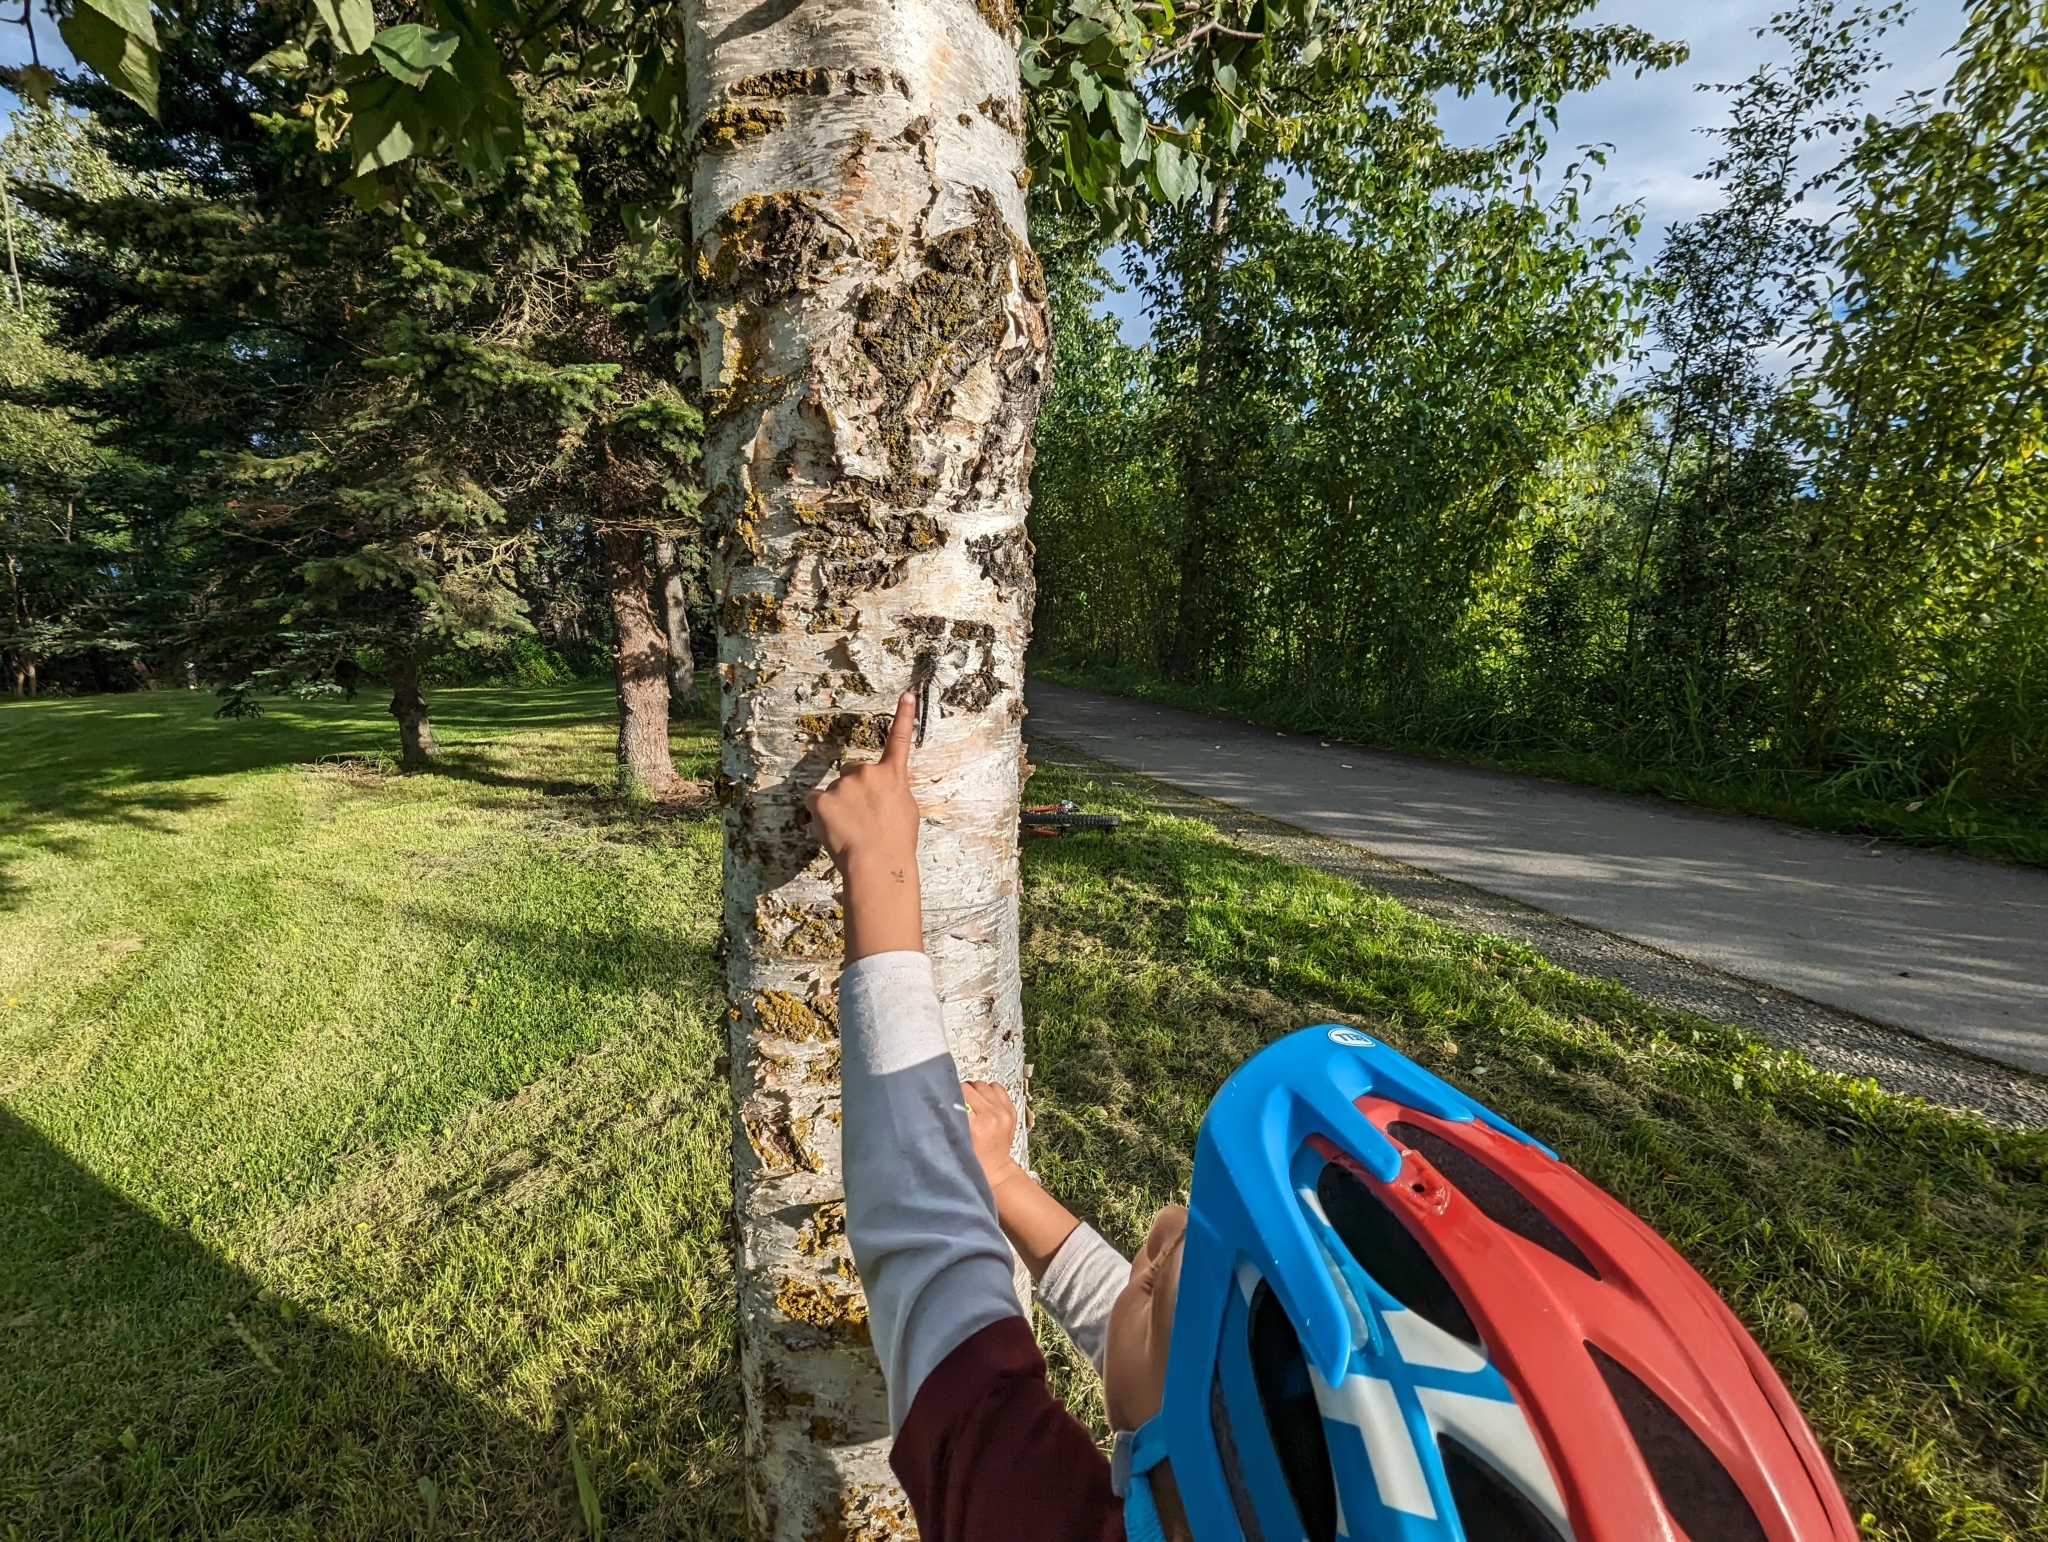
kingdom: Animalia
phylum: Arthropoda
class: Insecta
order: Odonata
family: Aeshnidae
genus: Aeshna
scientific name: Aeshna interrupta
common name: Variable darner
